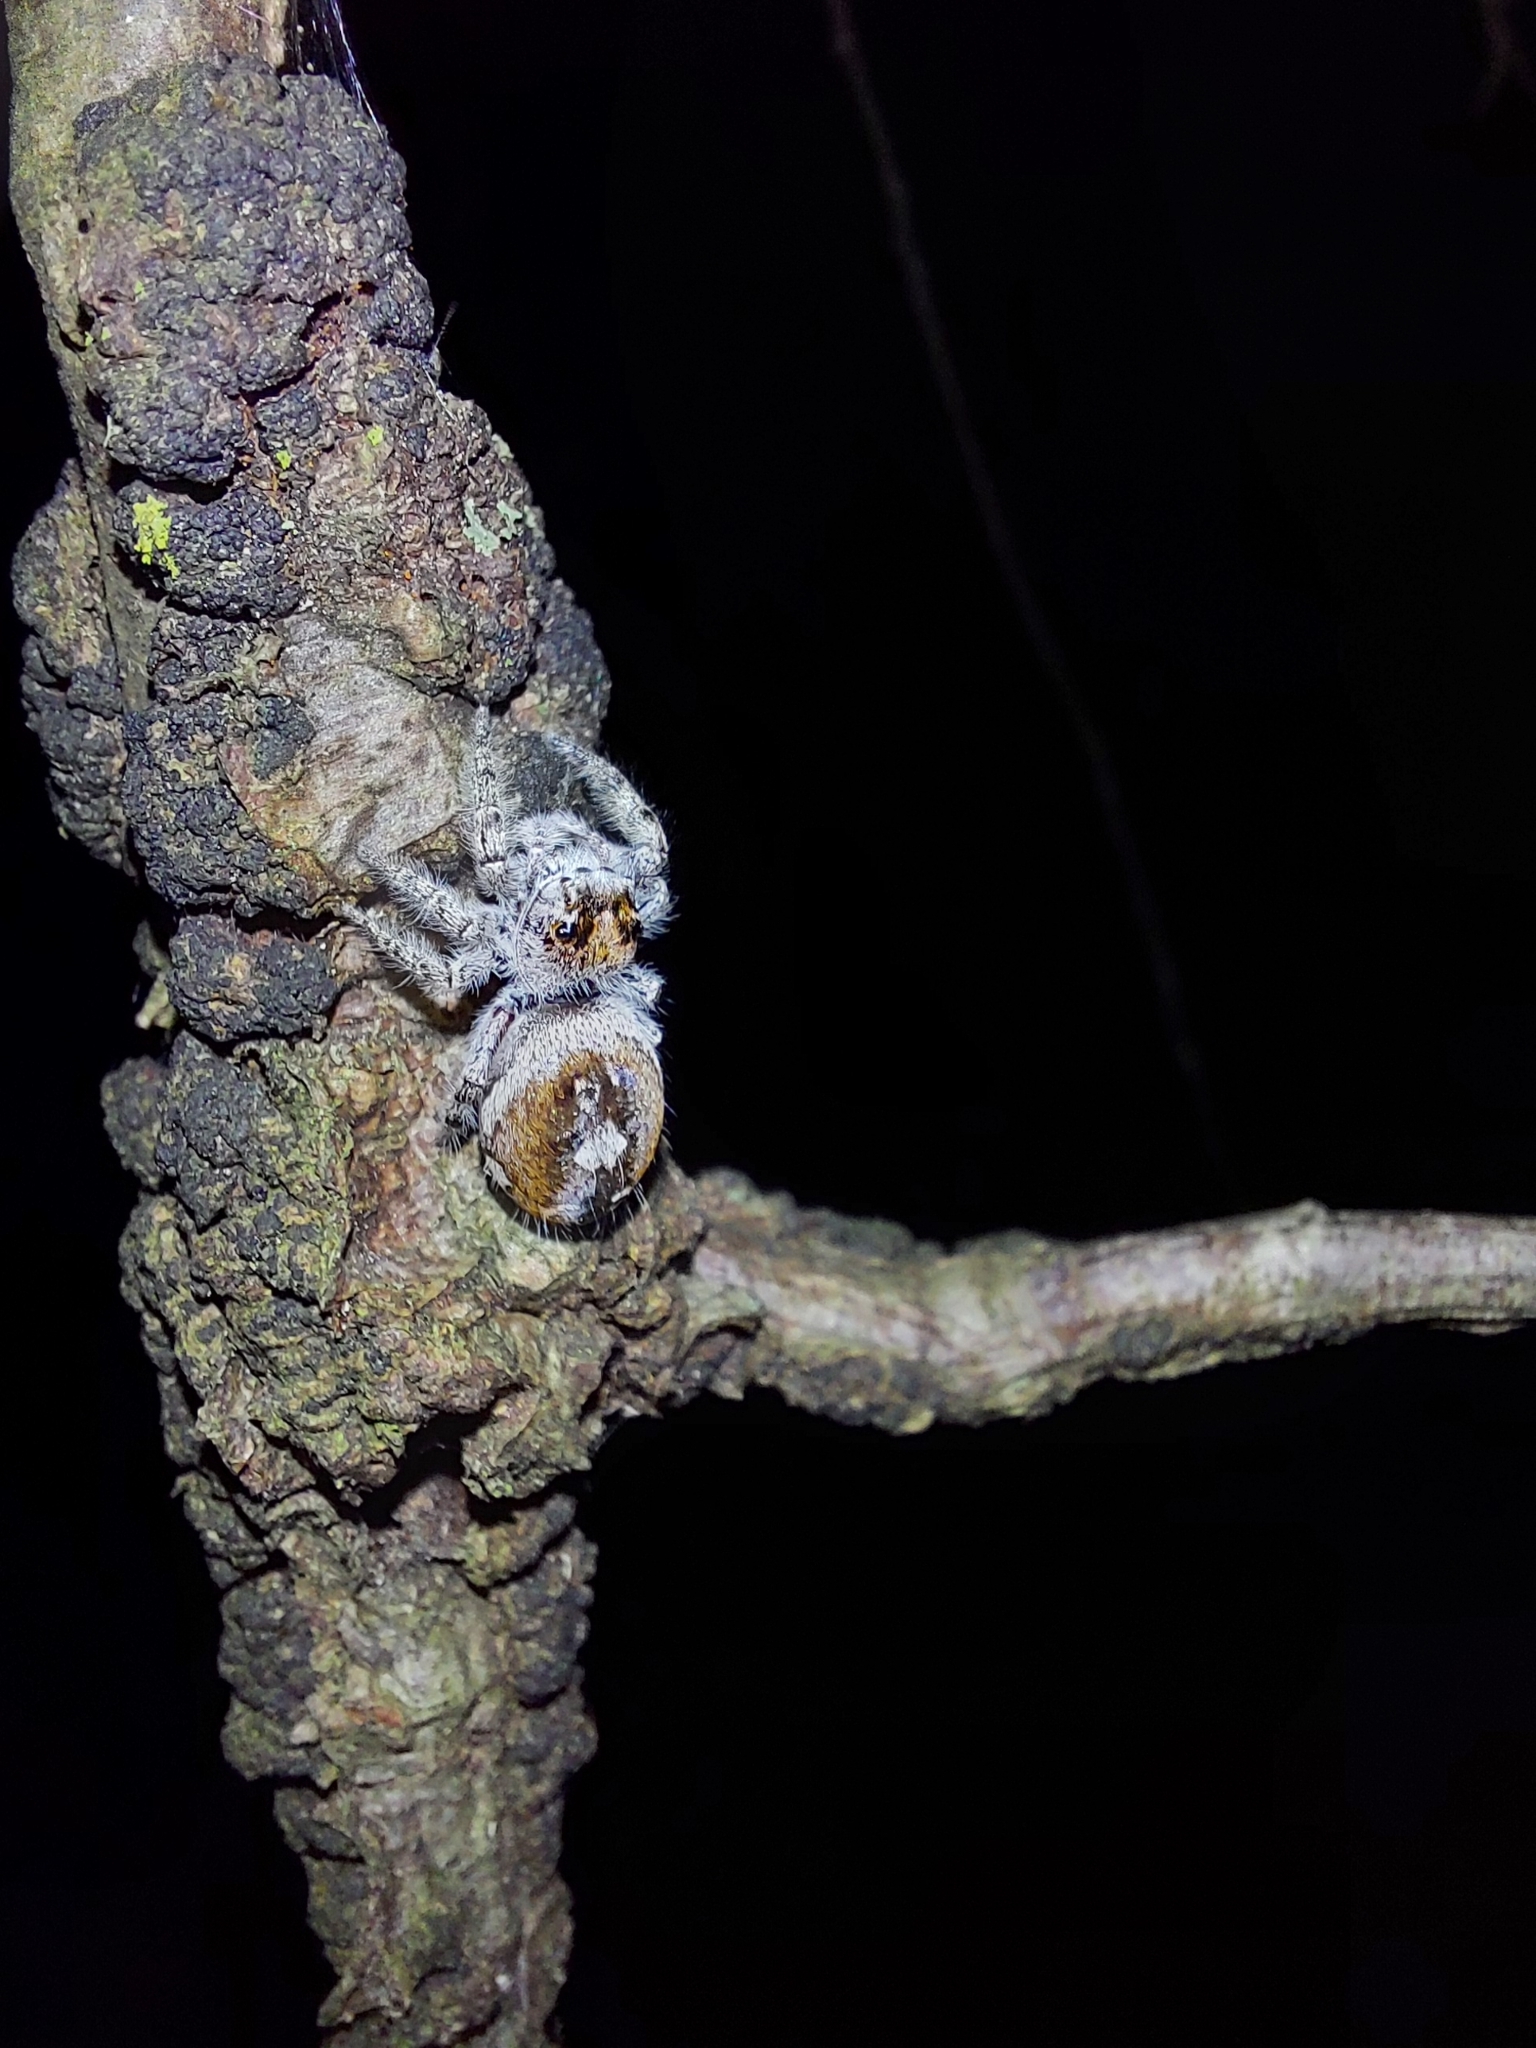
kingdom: Animalia
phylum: Arthropoda
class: Arachnida
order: Araneae
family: Salticidae
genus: Phidippus
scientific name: Phidippus putnami
